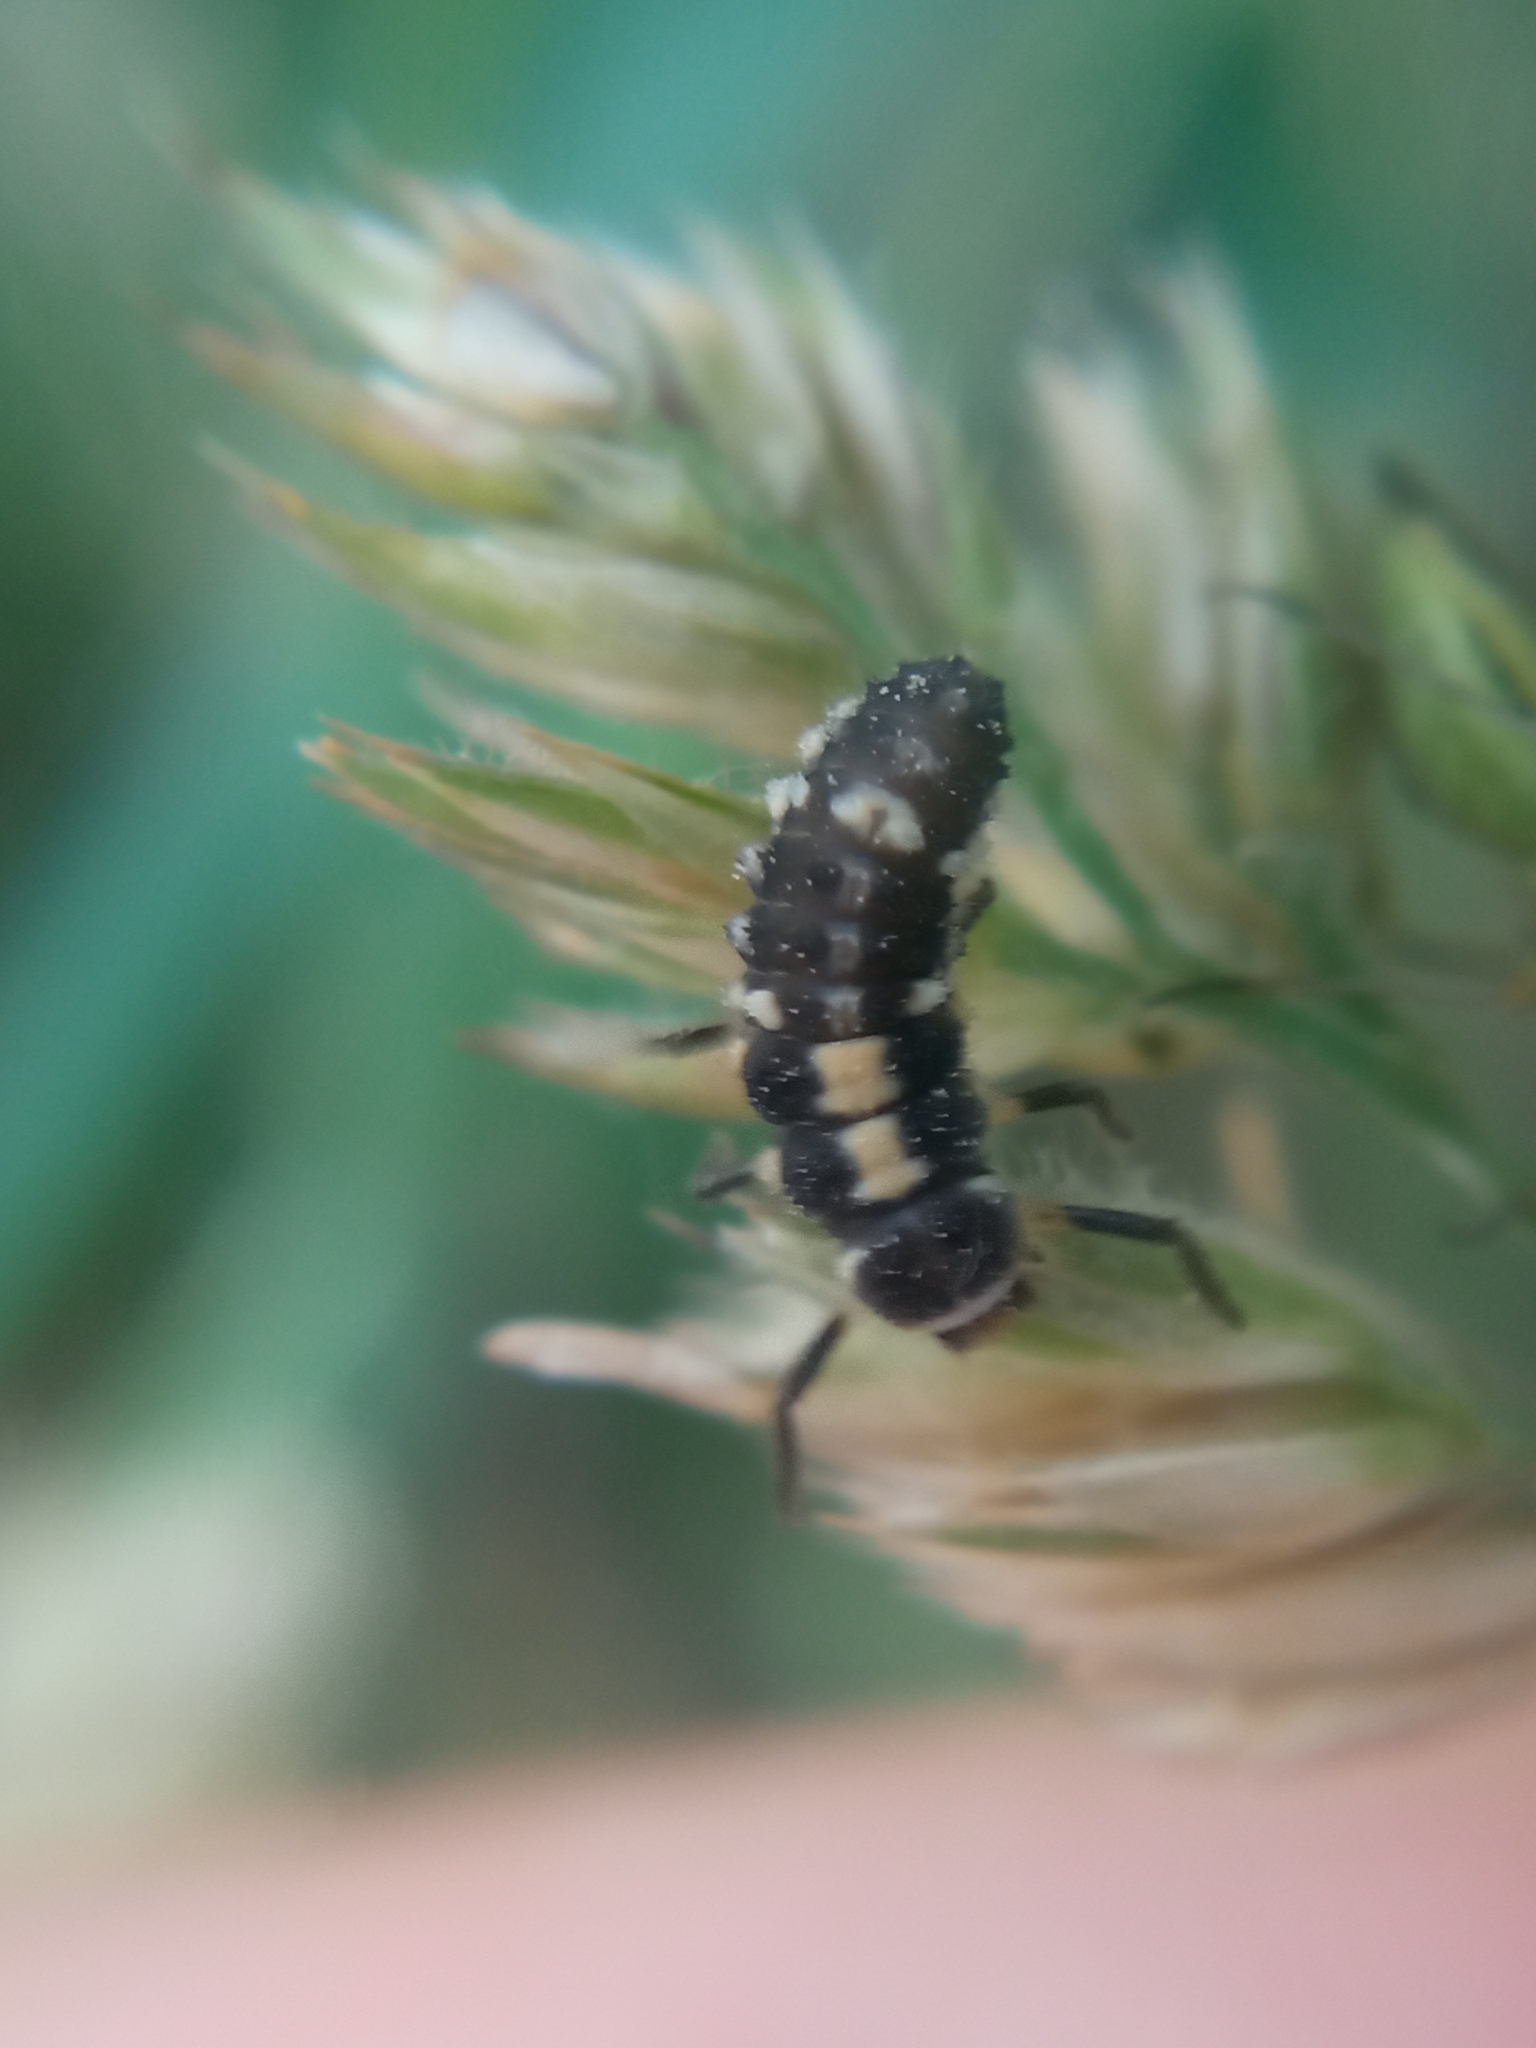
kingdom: Animalia
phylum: Arthropoda
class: Insecta
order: Coleoptera
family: Coccinellidae
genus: Propylaea
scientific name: Propylaea quatuordecimpunctata
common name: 14-spotted ladybird beetle
